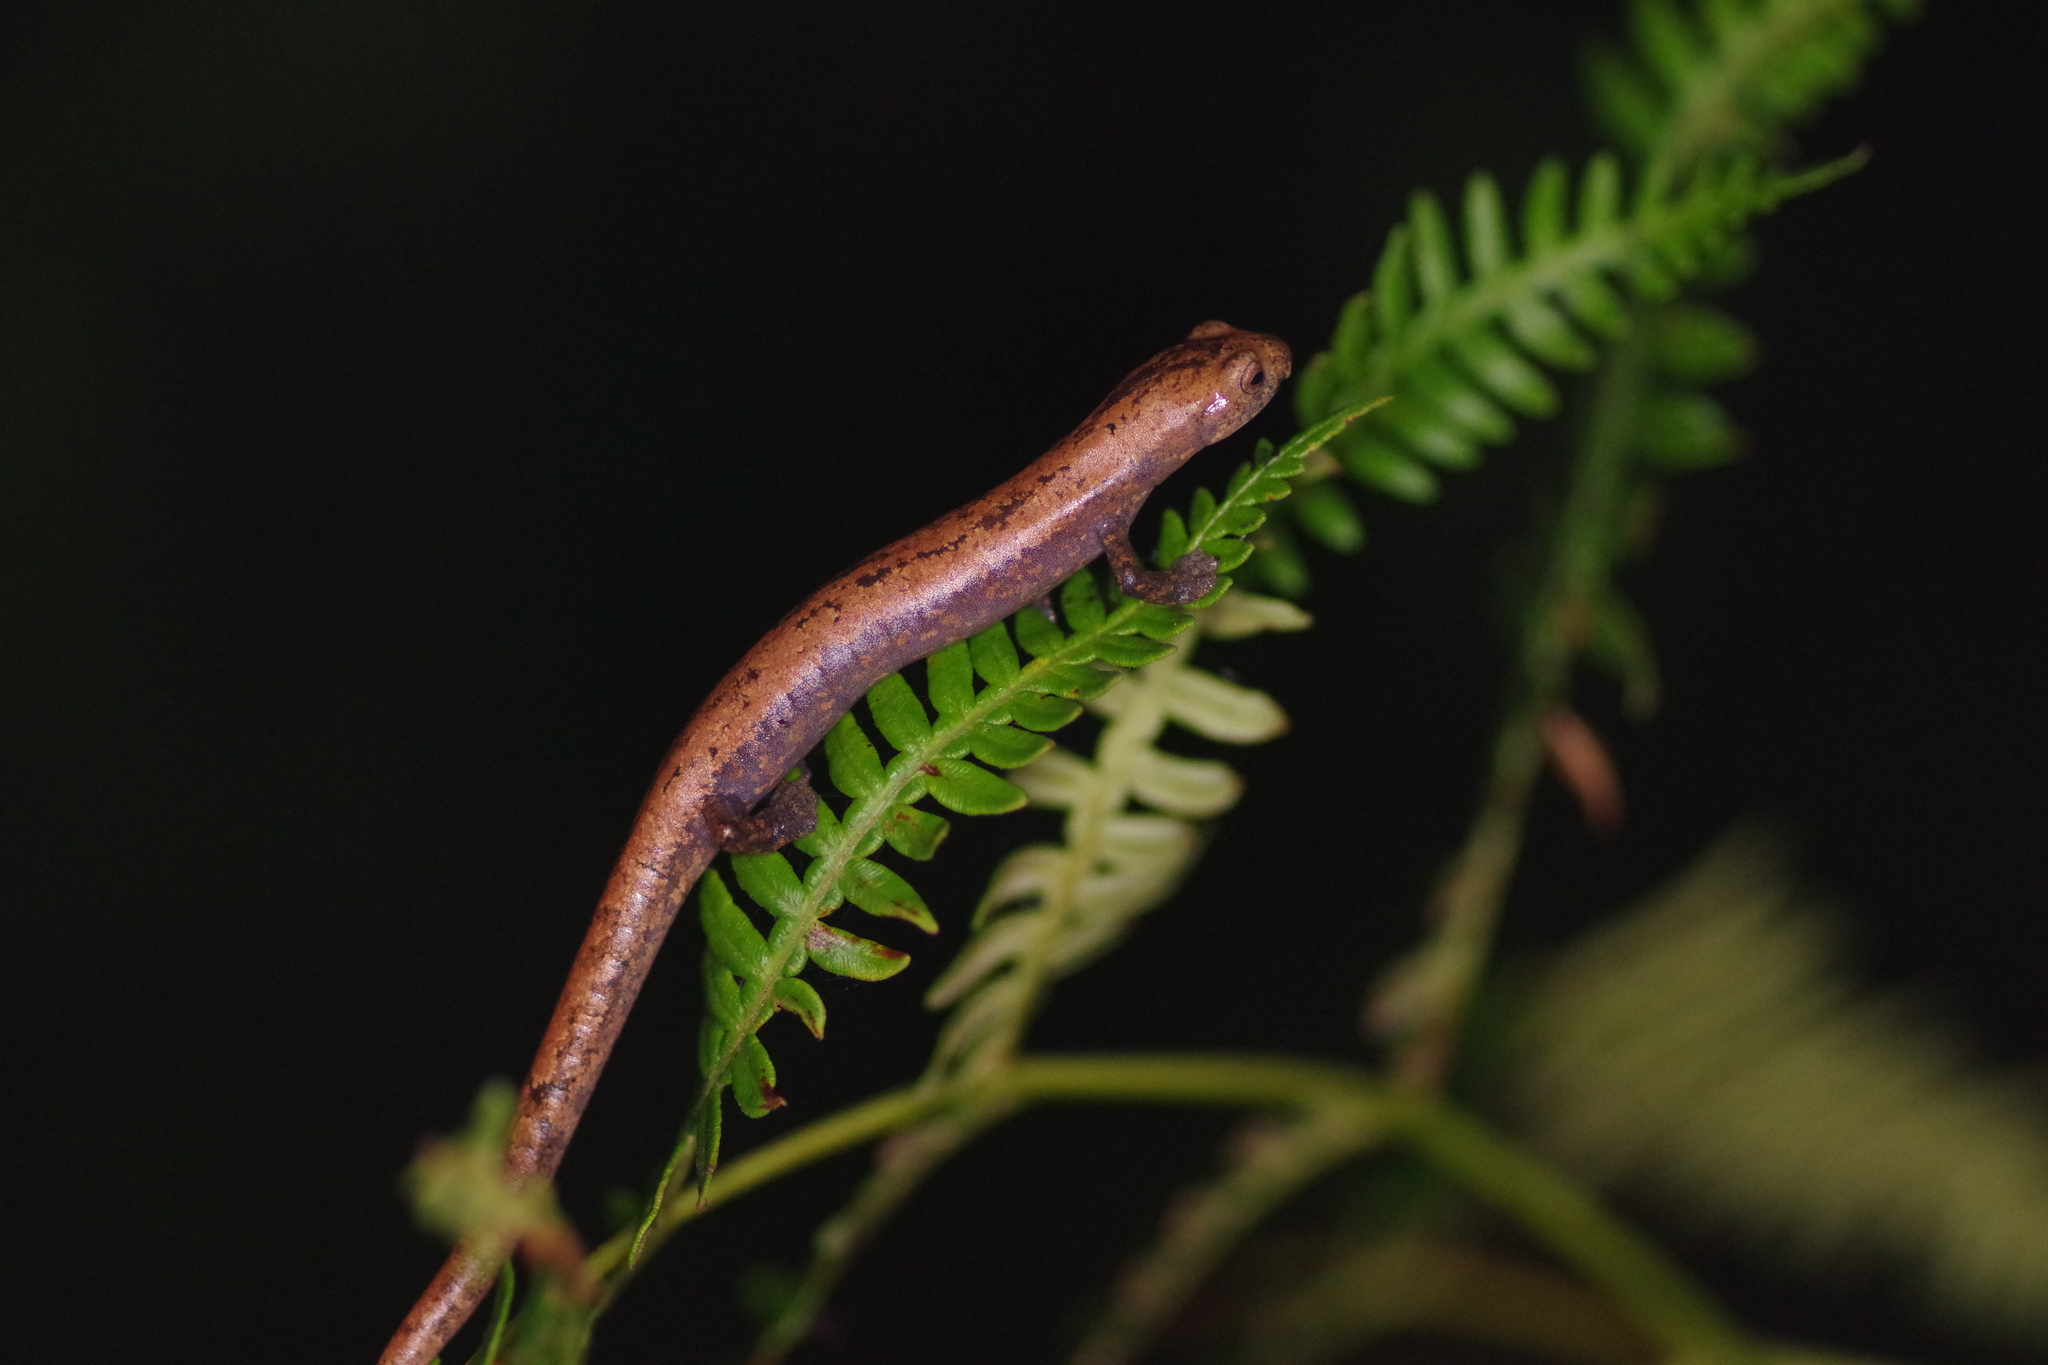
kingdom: Animalia
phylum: Chordata
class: Amphibia
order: Caudata
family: Plethodontidae
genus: Bolitoglossa
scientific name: Bolitoglossa lignicolor
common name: Camron mushroomtongue salamander
